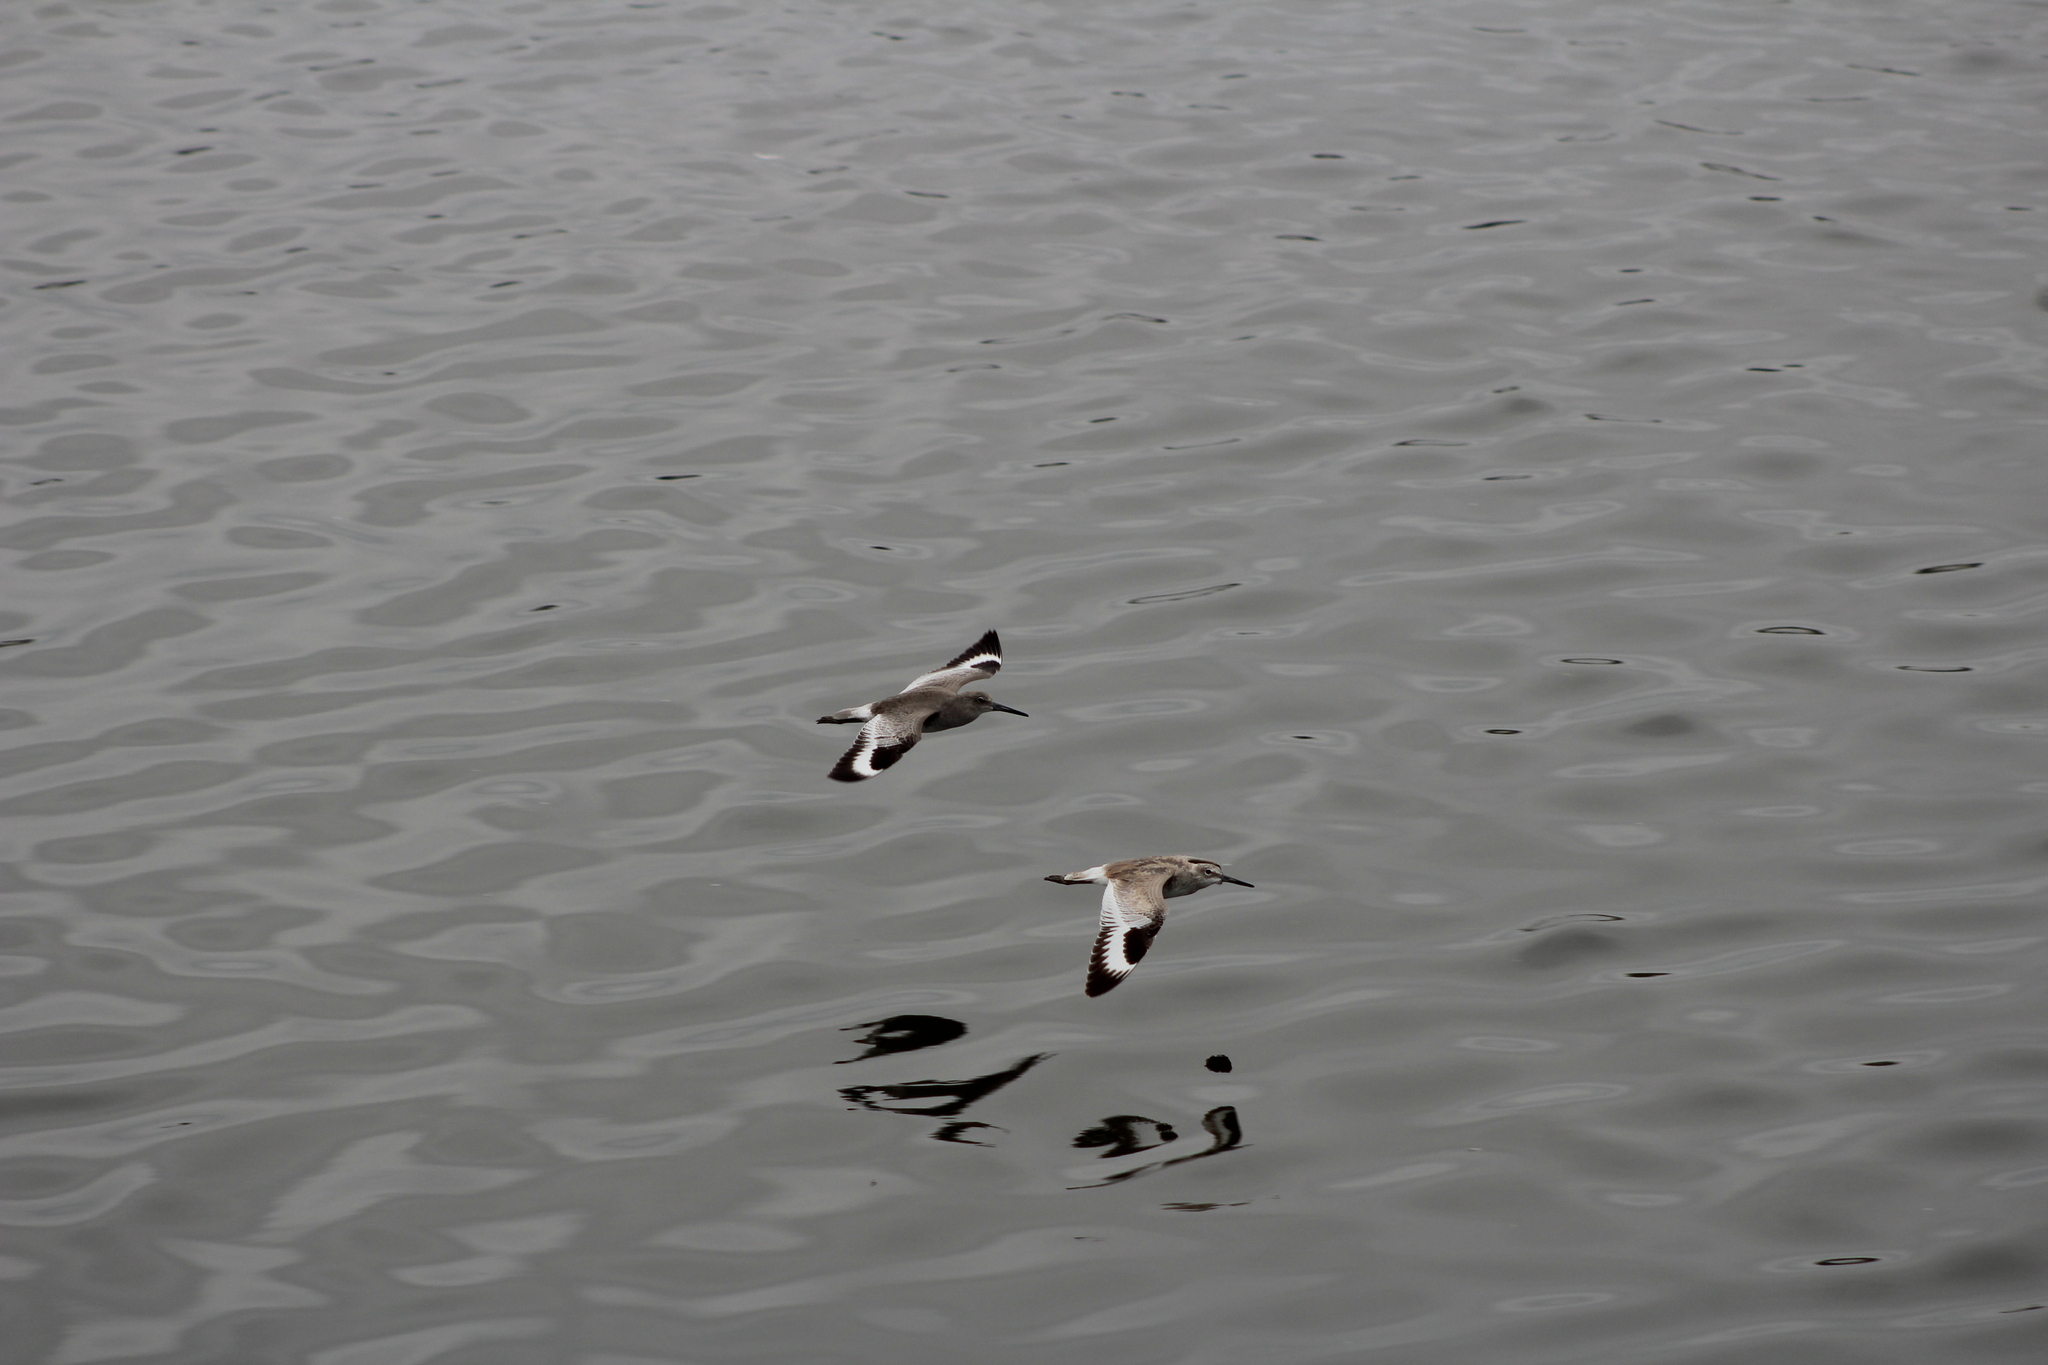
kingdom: Animalia
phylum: Chordata
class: Aves
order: Charadriiformes
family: Scolopacidae
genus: Tringa
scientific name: Tringa semipalmata
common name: Willet
